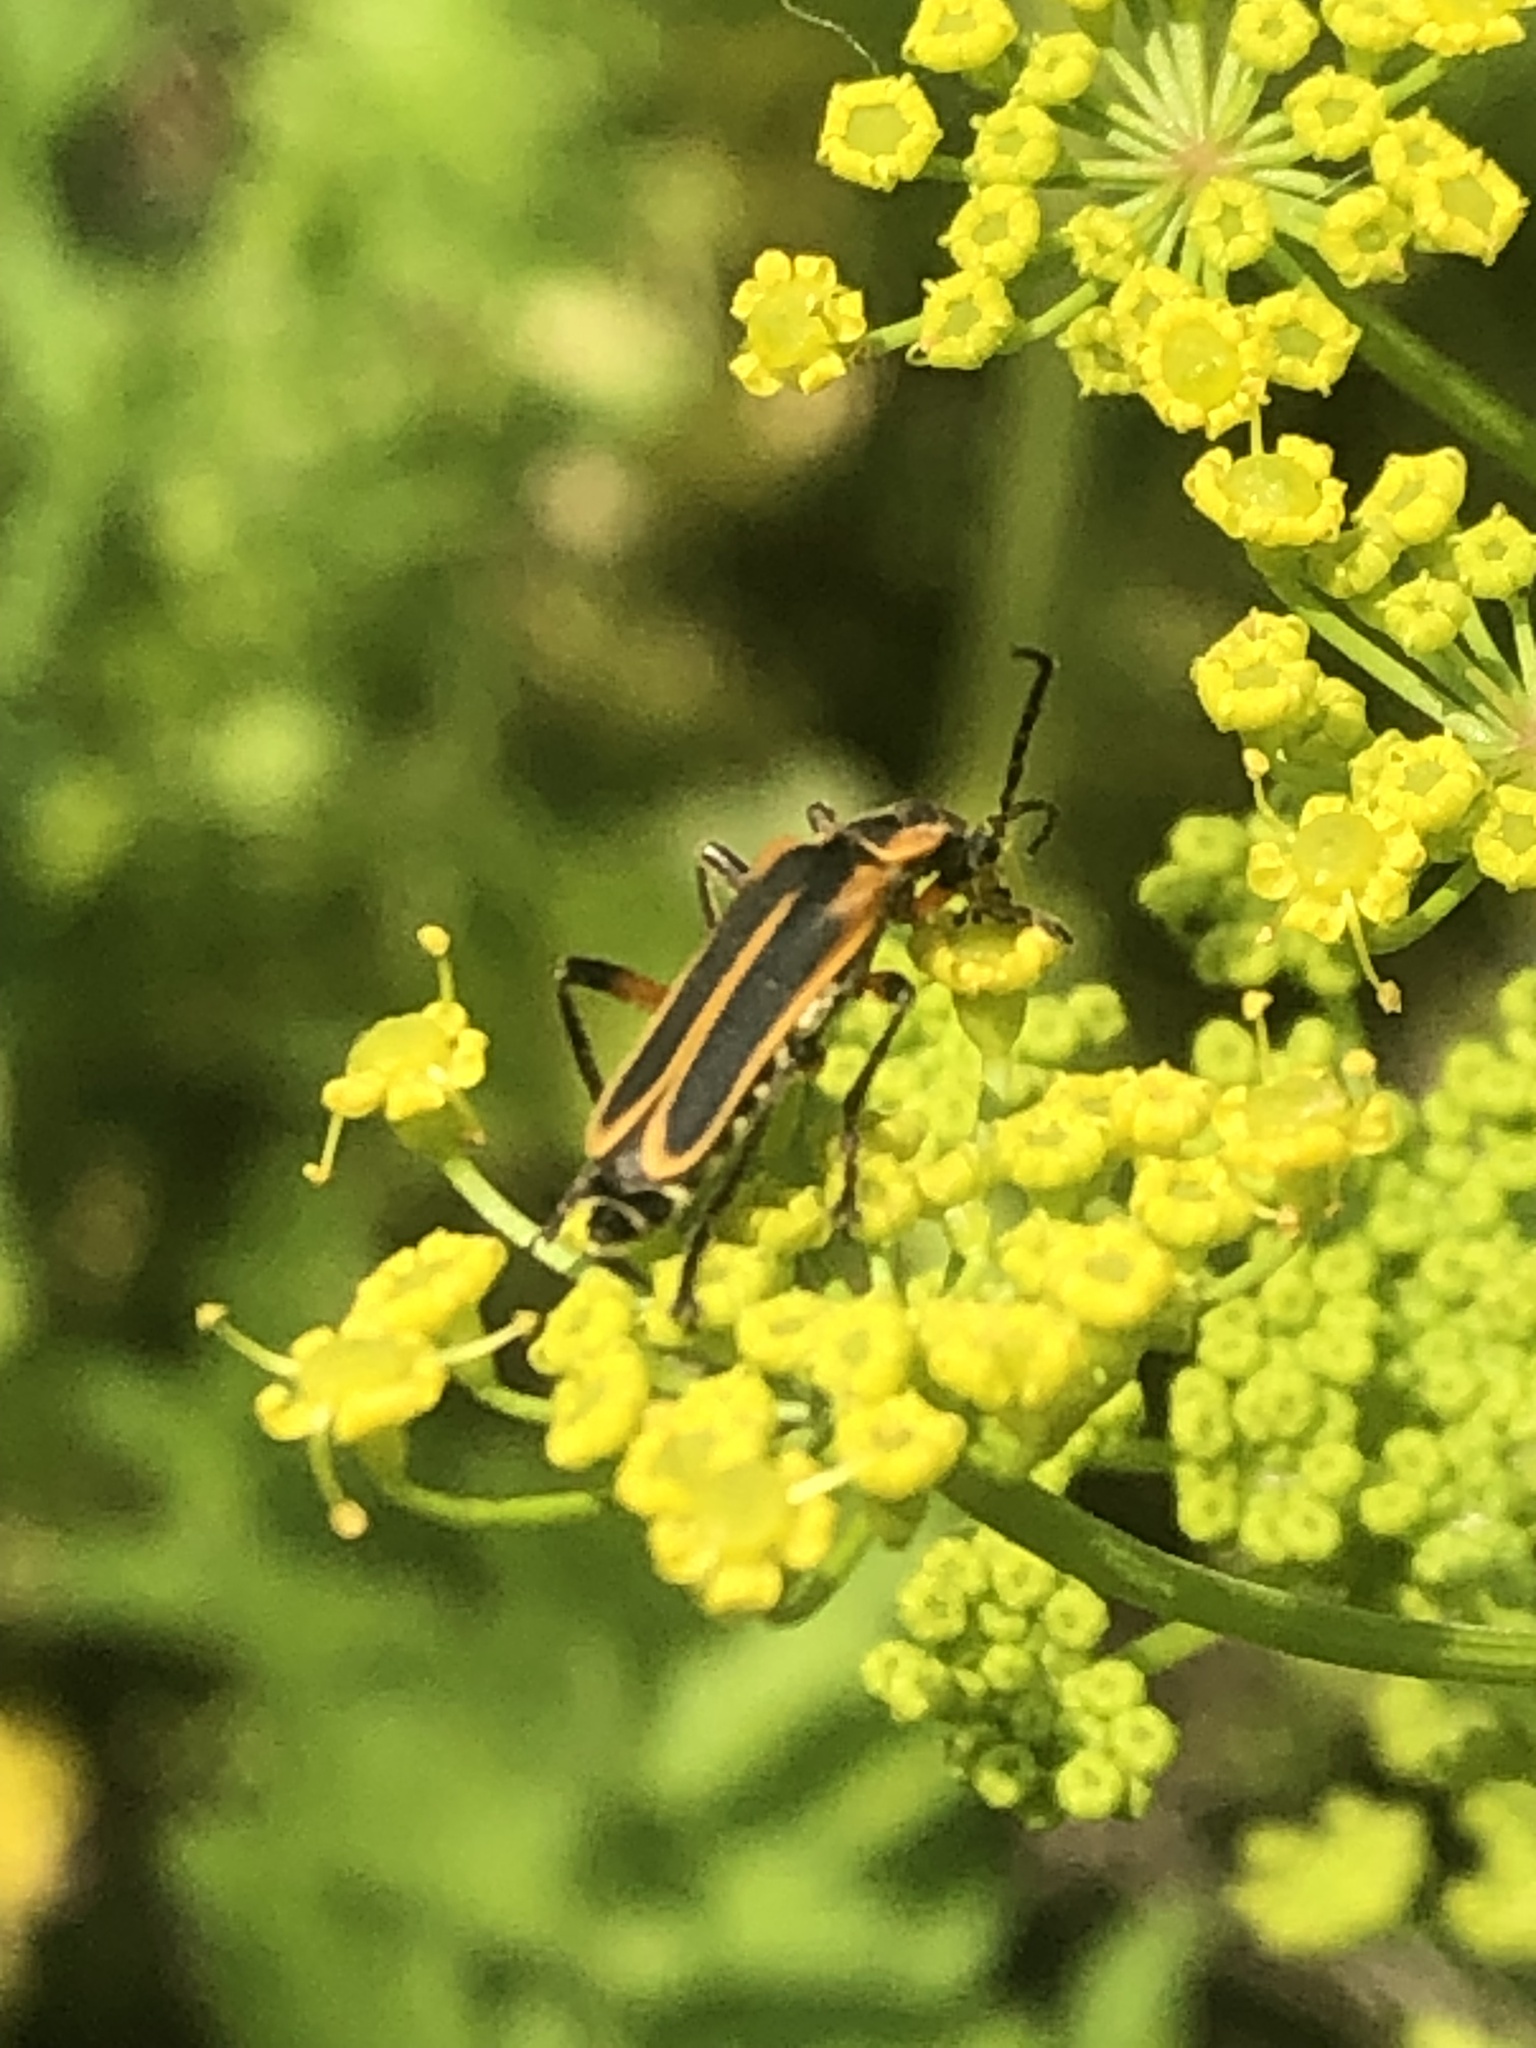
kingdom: Animalia
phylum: Arthropoda
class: Insecta
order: Coleoptera
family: Cantharidae
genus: Chauliognathus
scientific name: Chauliognathus marginatus
